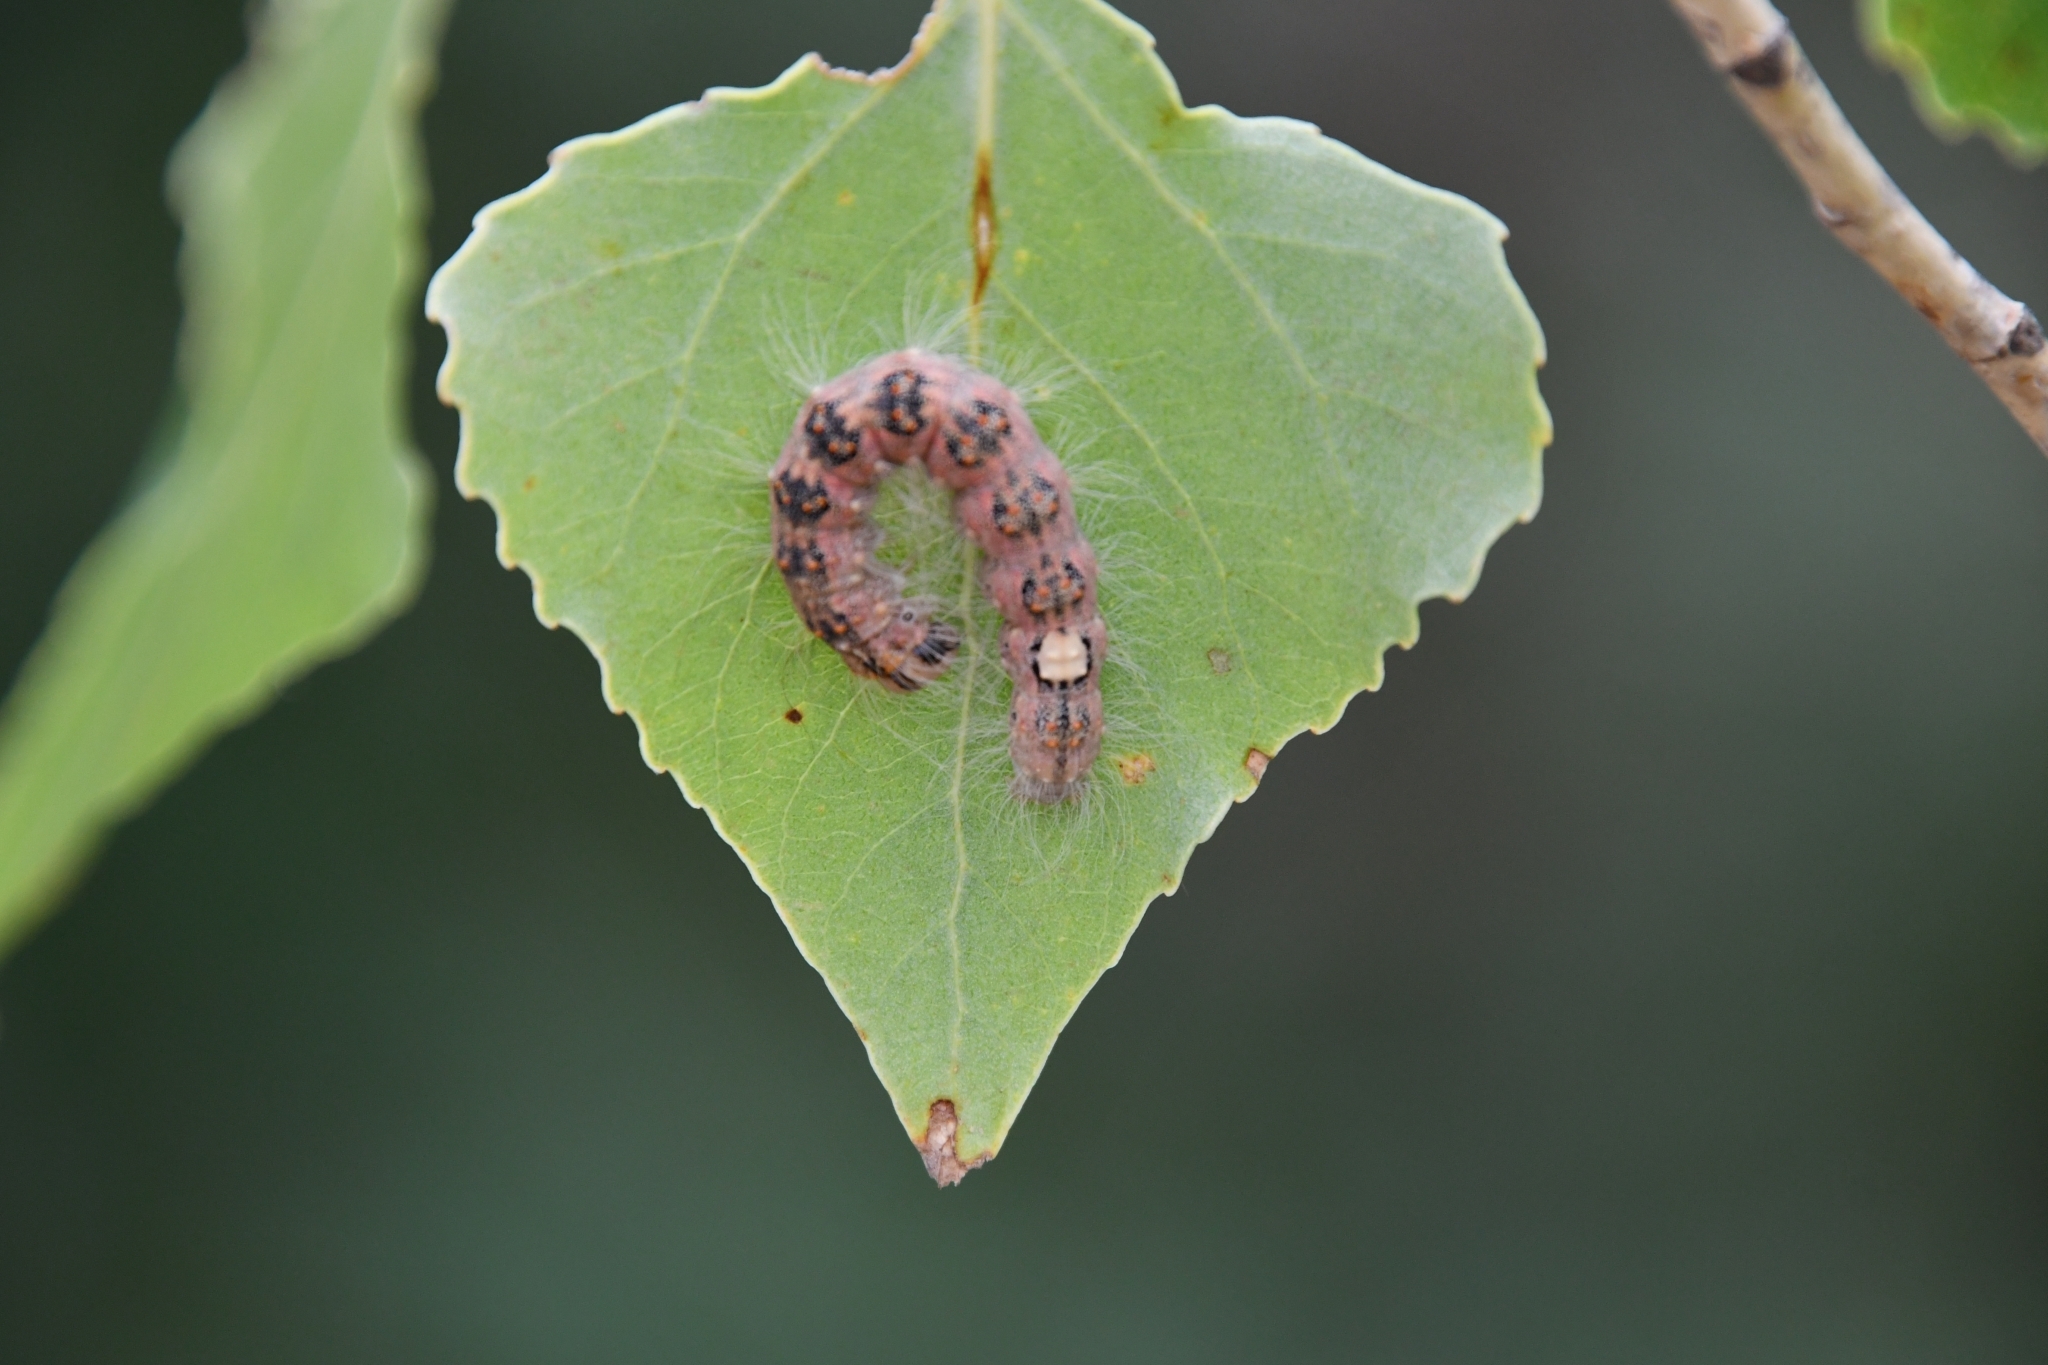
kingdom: Animalia
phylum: Arthropoda
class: Insecta
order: Lepidoptera
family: Noctuidae
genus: Acronicta
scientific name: Acronicta megacephala
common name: Poplar grey
